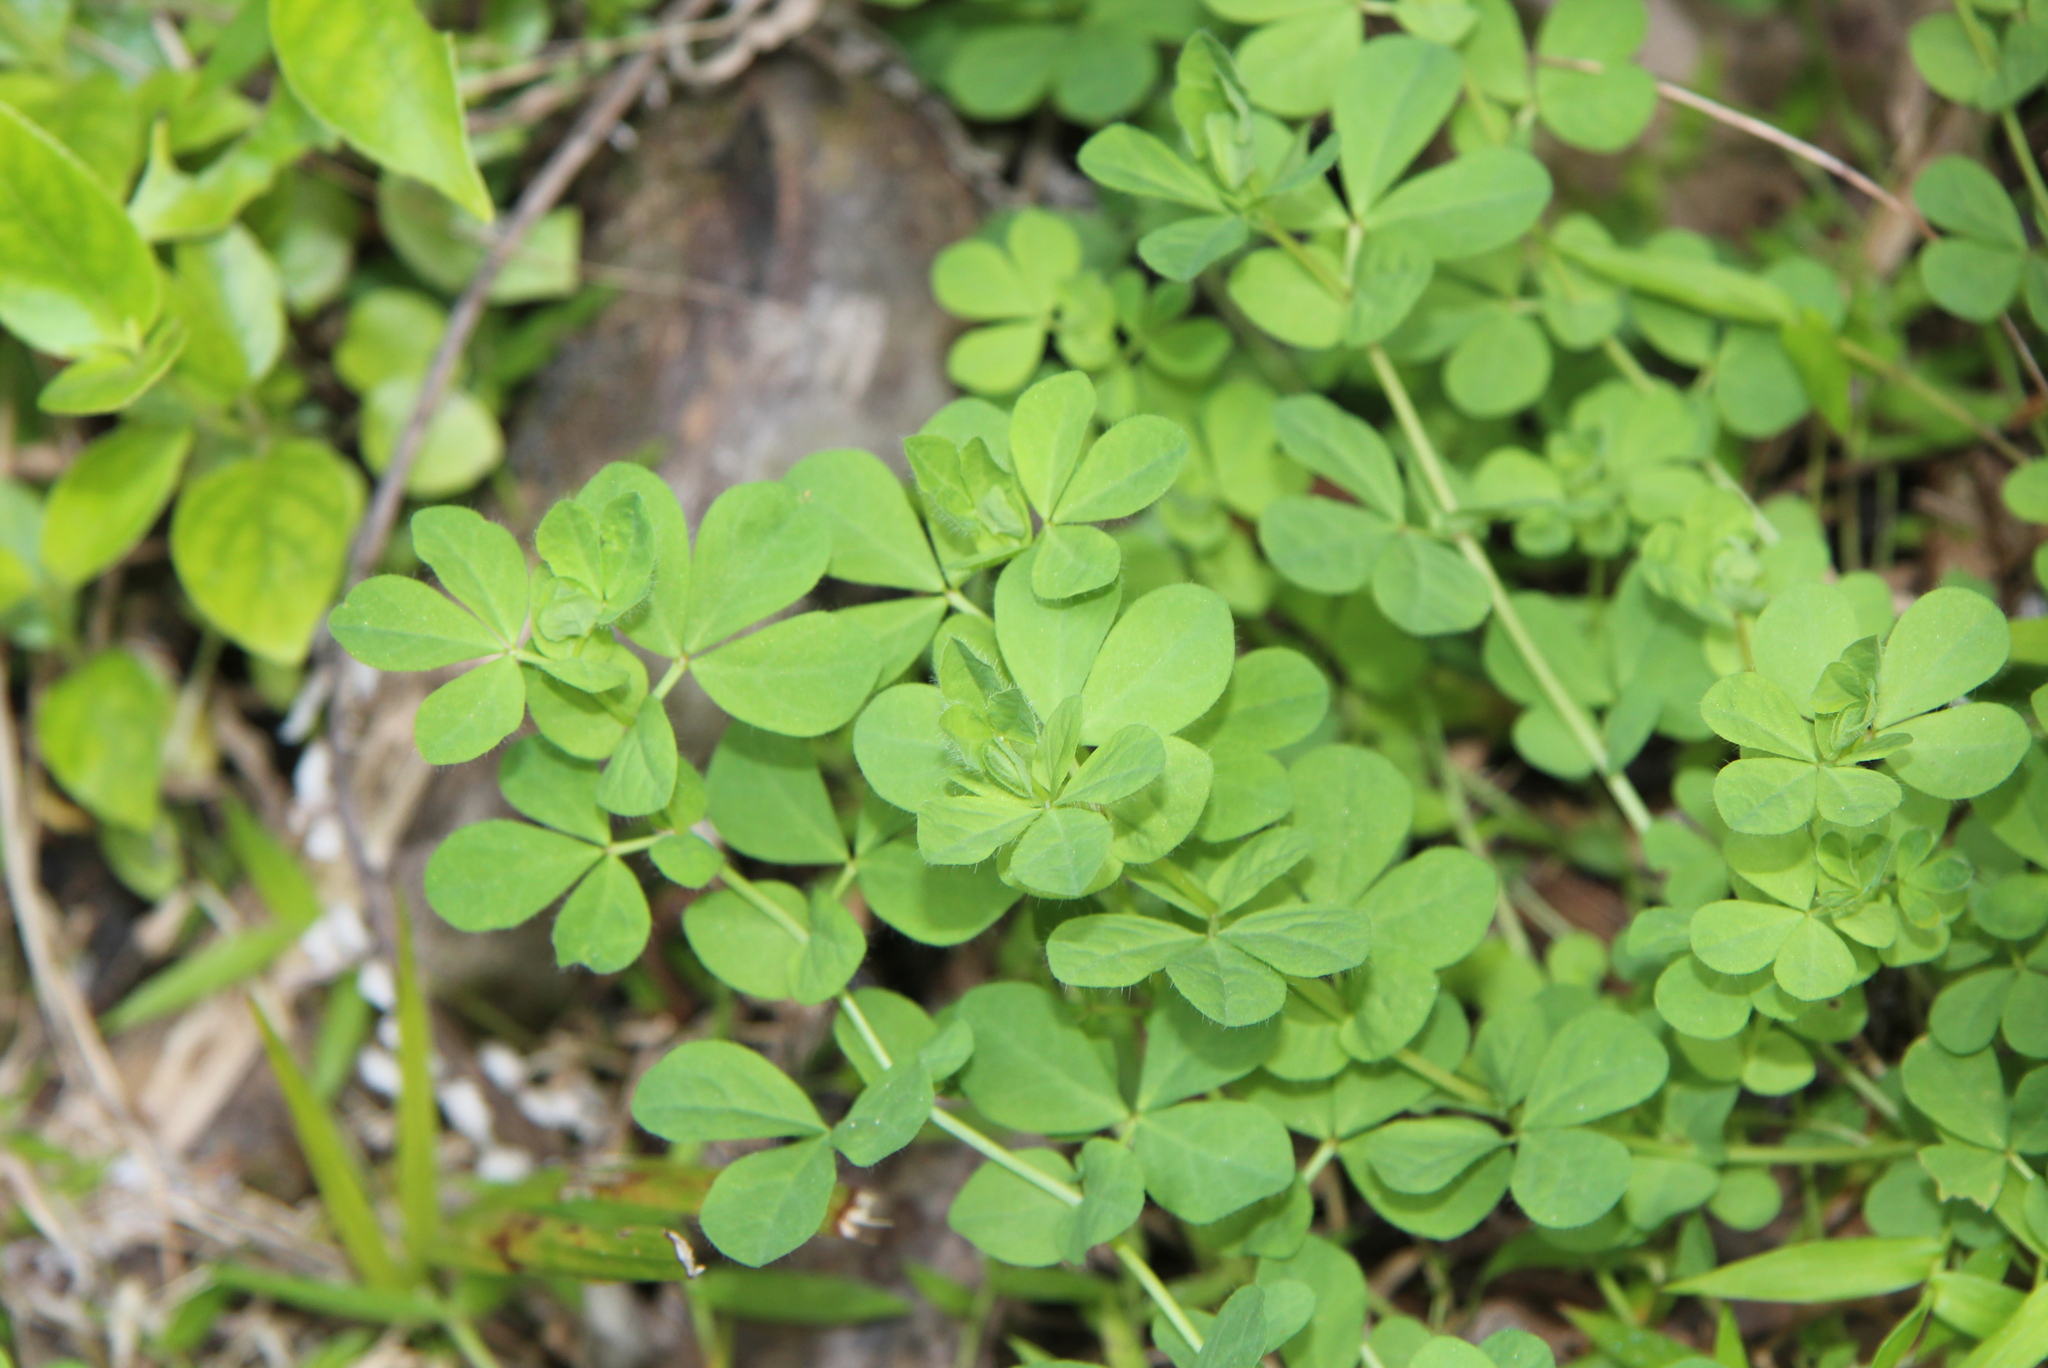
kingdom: Plantae
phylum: Tracheophyta
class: Magnoliopsida
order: Fabales
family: Fabaceae
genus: Lotus
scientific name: Lotus pedunculatus
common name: Greater birdsfoot-trefoil
